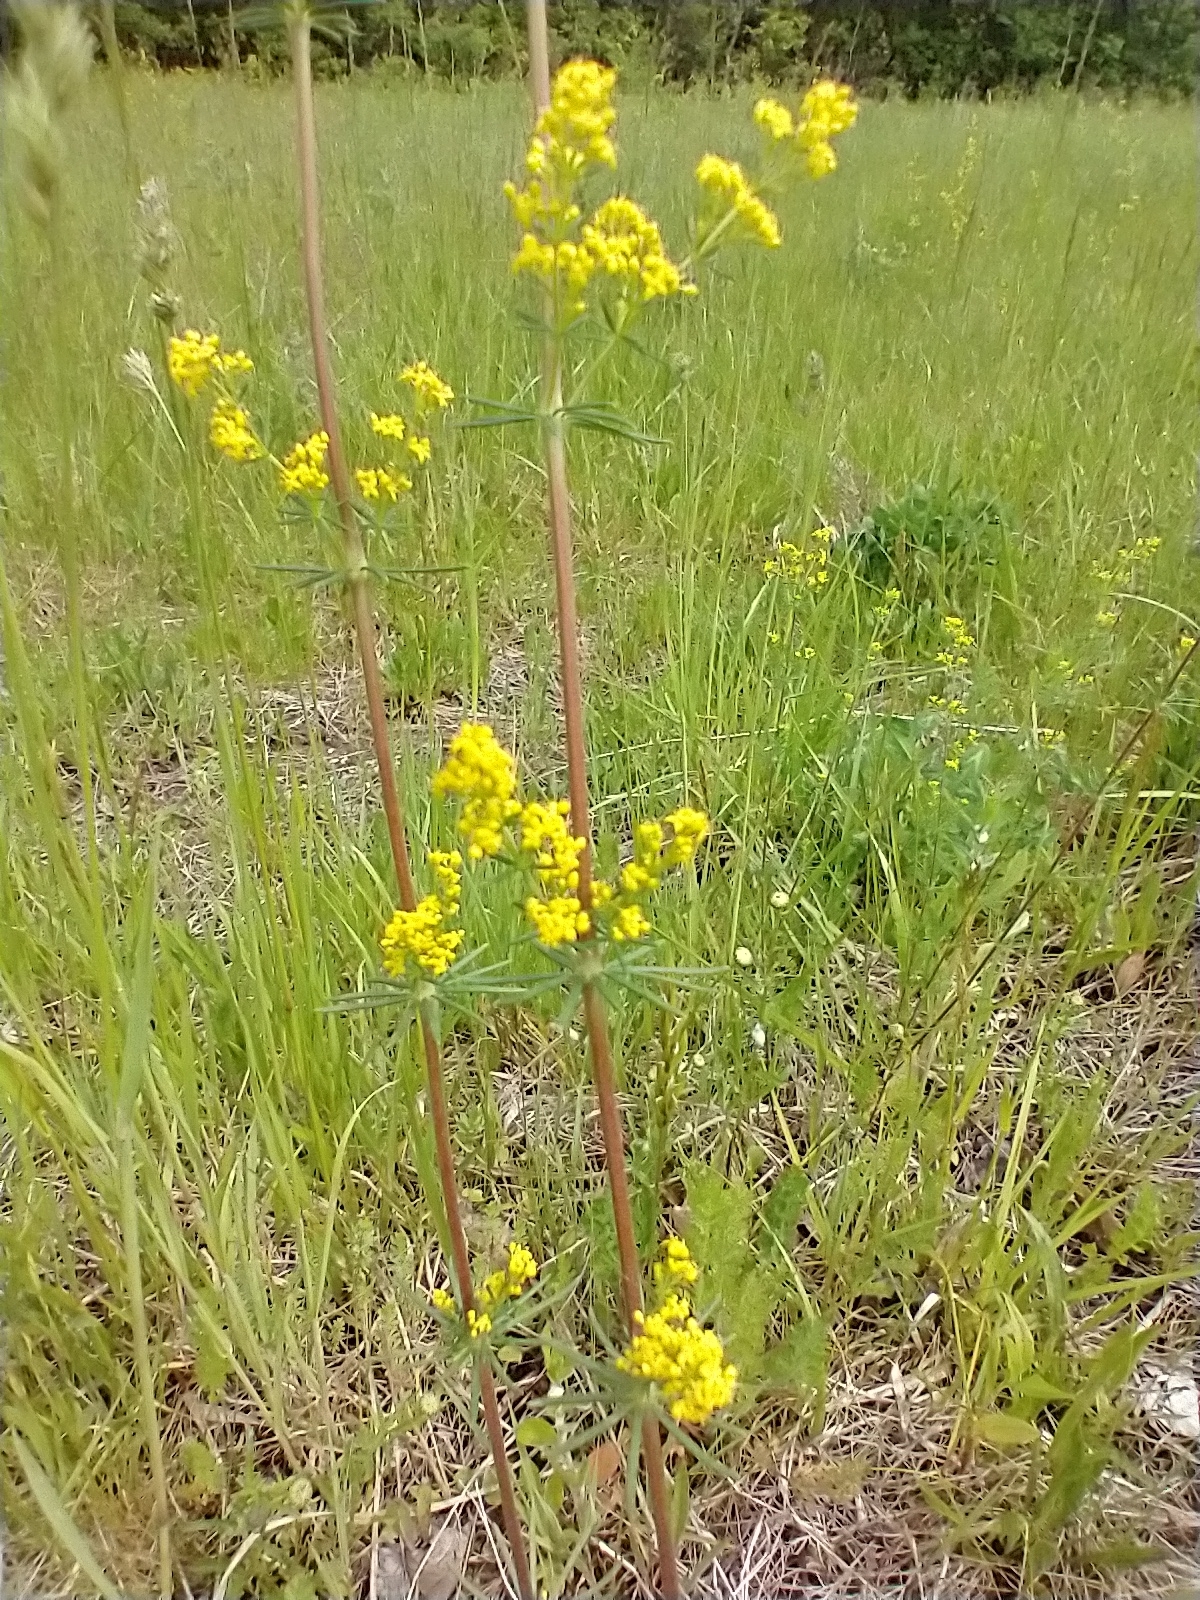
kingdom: Plantae
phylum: Tracheophyta
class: Magnoliopsida
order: Gentianales
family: Rubiaceae
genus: Galium
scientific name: Galium verum
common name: Lady's bedstraw
